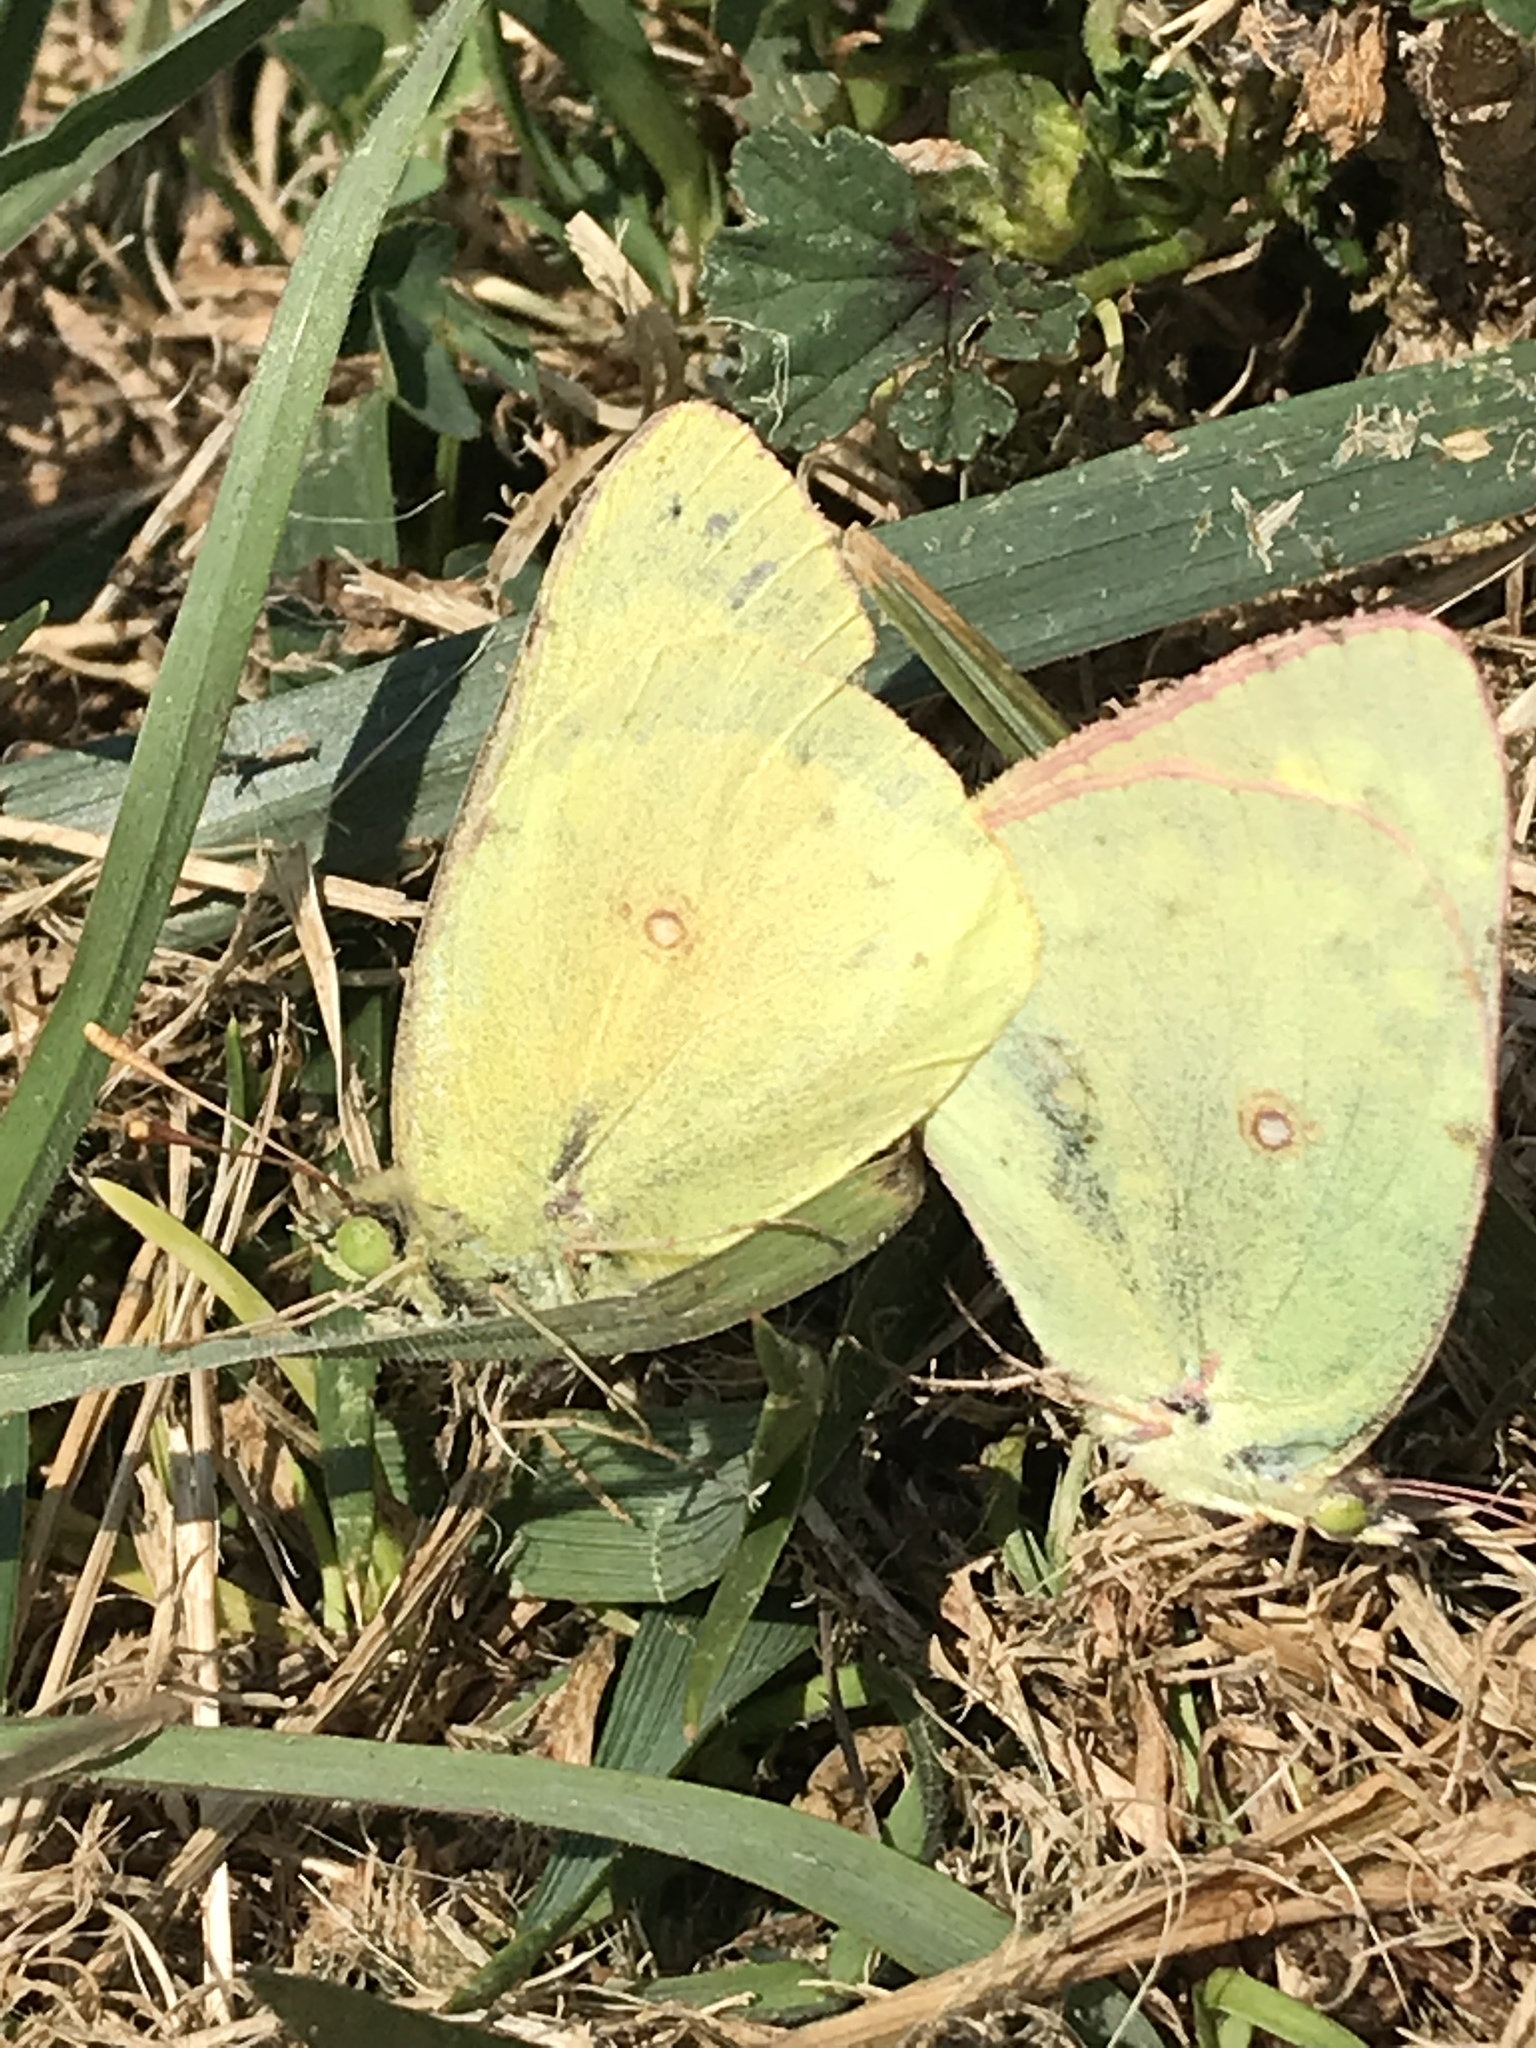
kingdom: Animalia
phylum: Arthropoda
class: Insecta
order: Lepidoptera
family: Pieridae
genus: Colias
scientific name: Colias eurytheme
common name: Alfalfa butterfly
